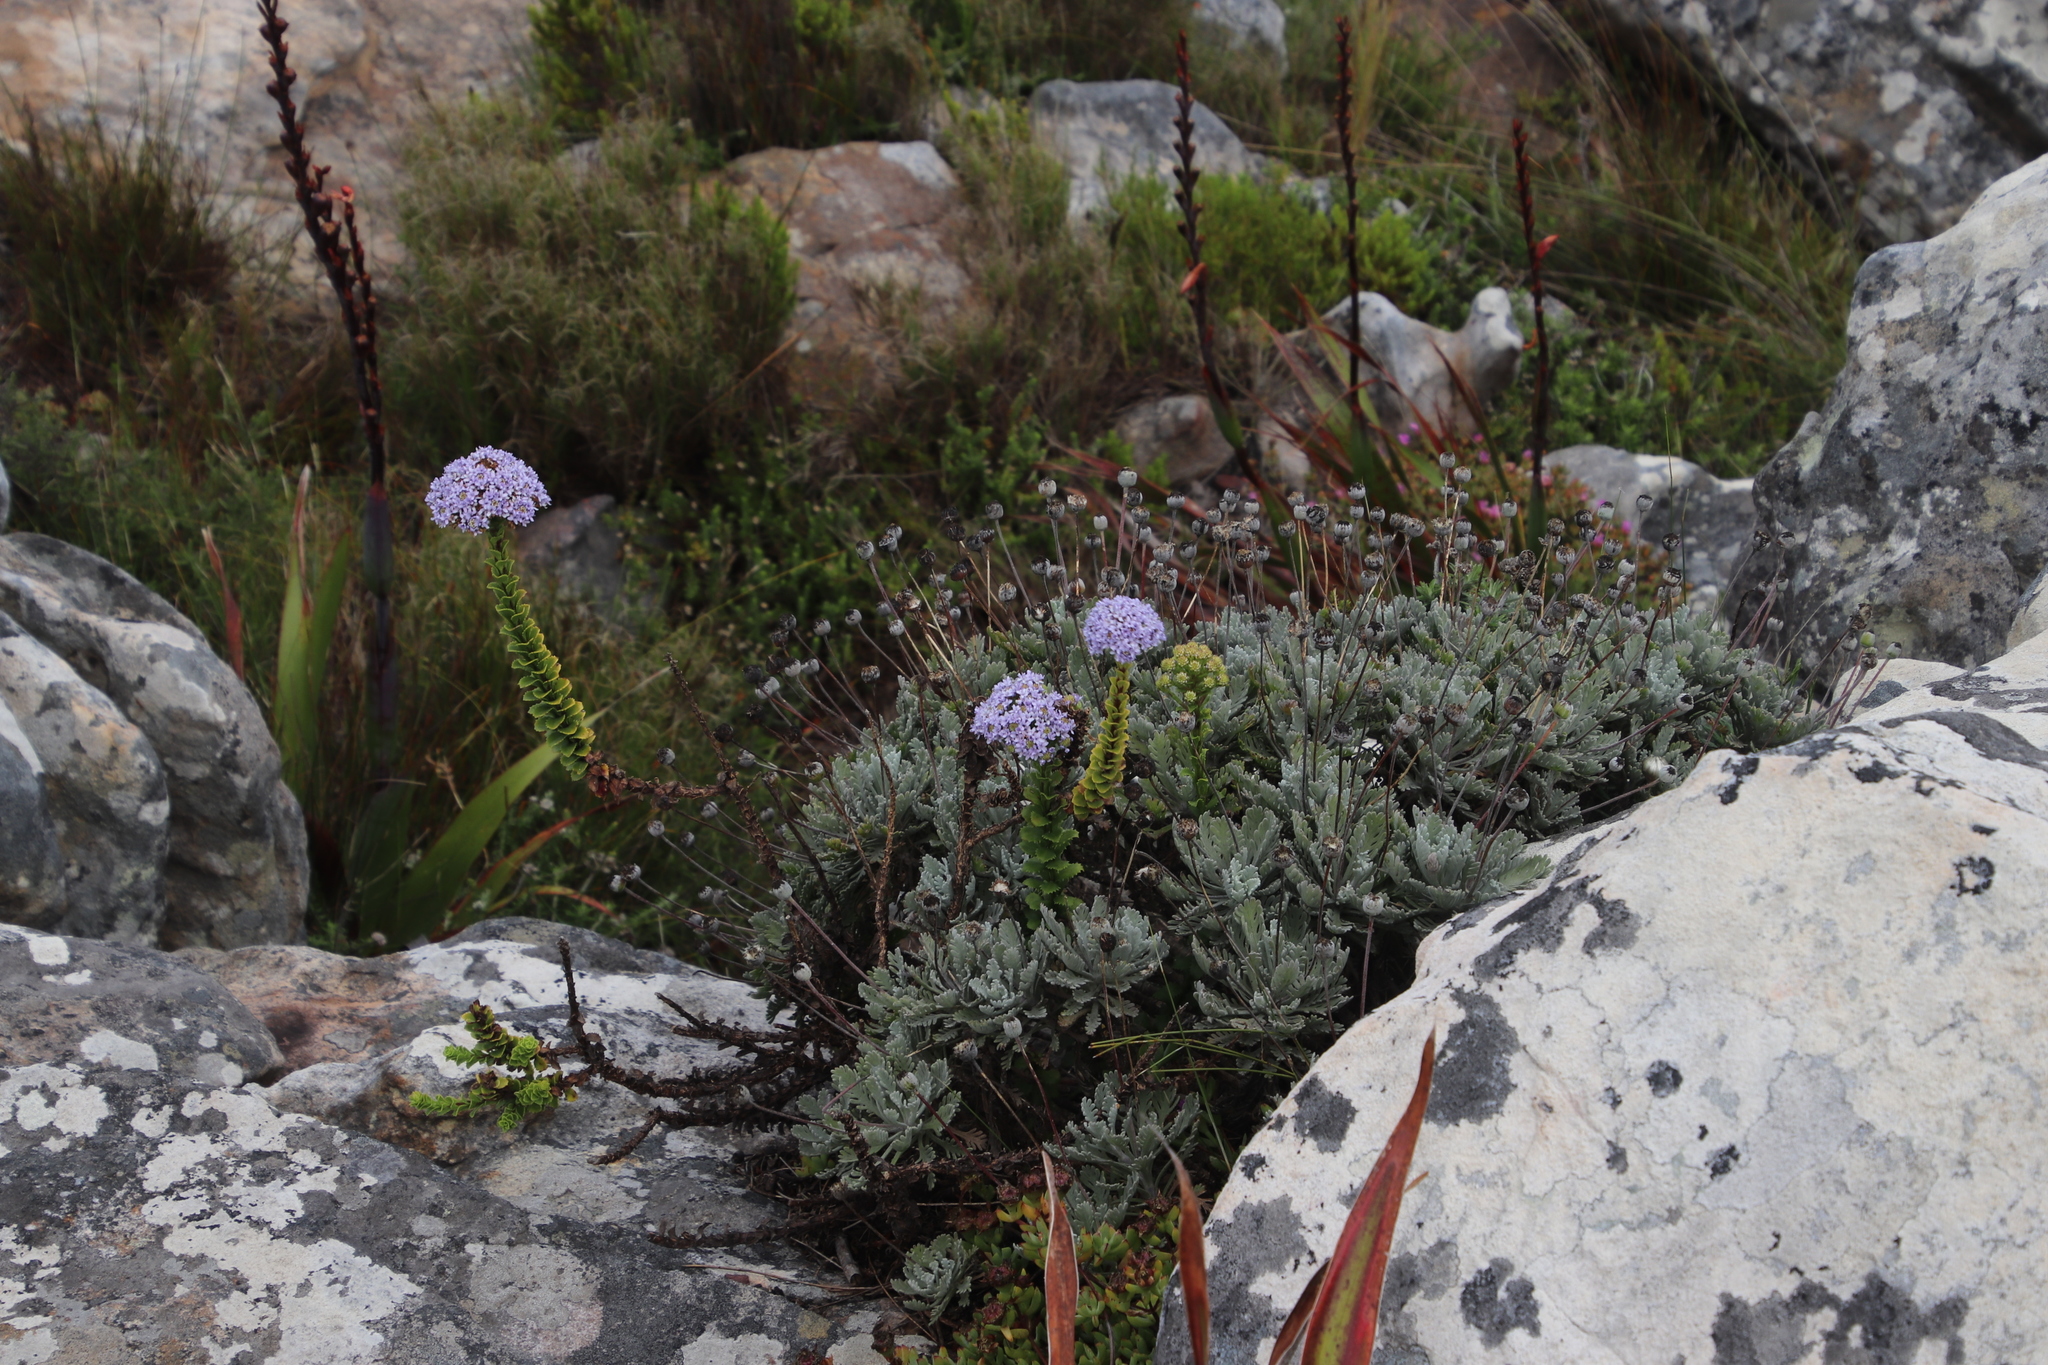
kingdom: Plantae
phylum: Tracheophyta
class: Magnoliopsida
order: Lamiales
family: Scrophulariaceae
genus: Pseudoselago
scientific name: Pseudoselago serrata
